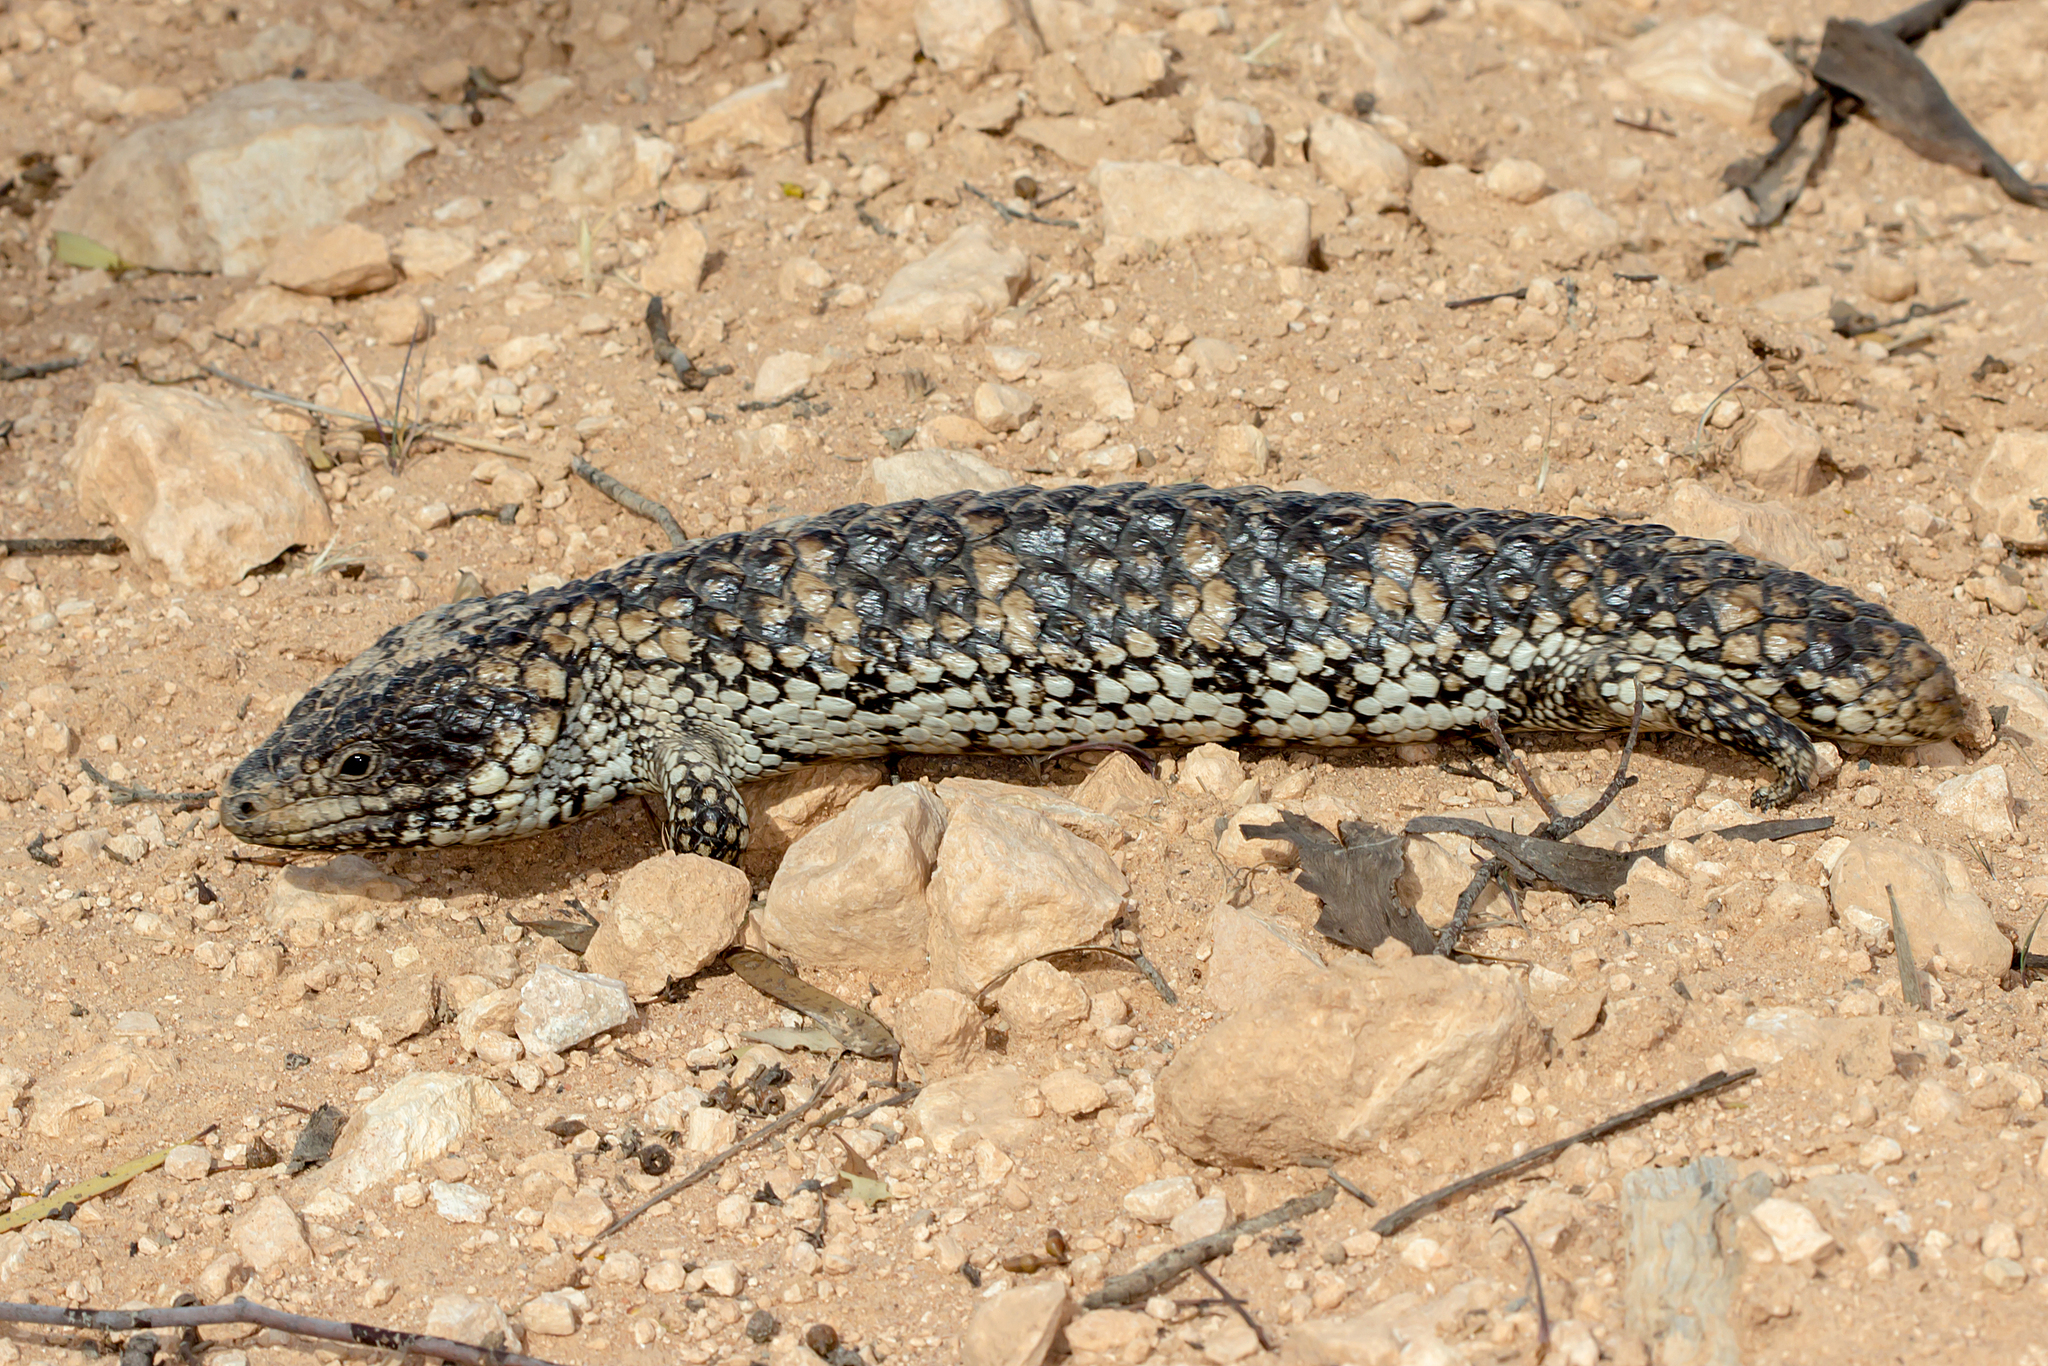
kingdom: Animalia
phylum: Chordata
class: Squamata
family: Scincidae
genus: Tiliqua
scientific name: Tiliqua rugosa
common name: Pinecone lizard
